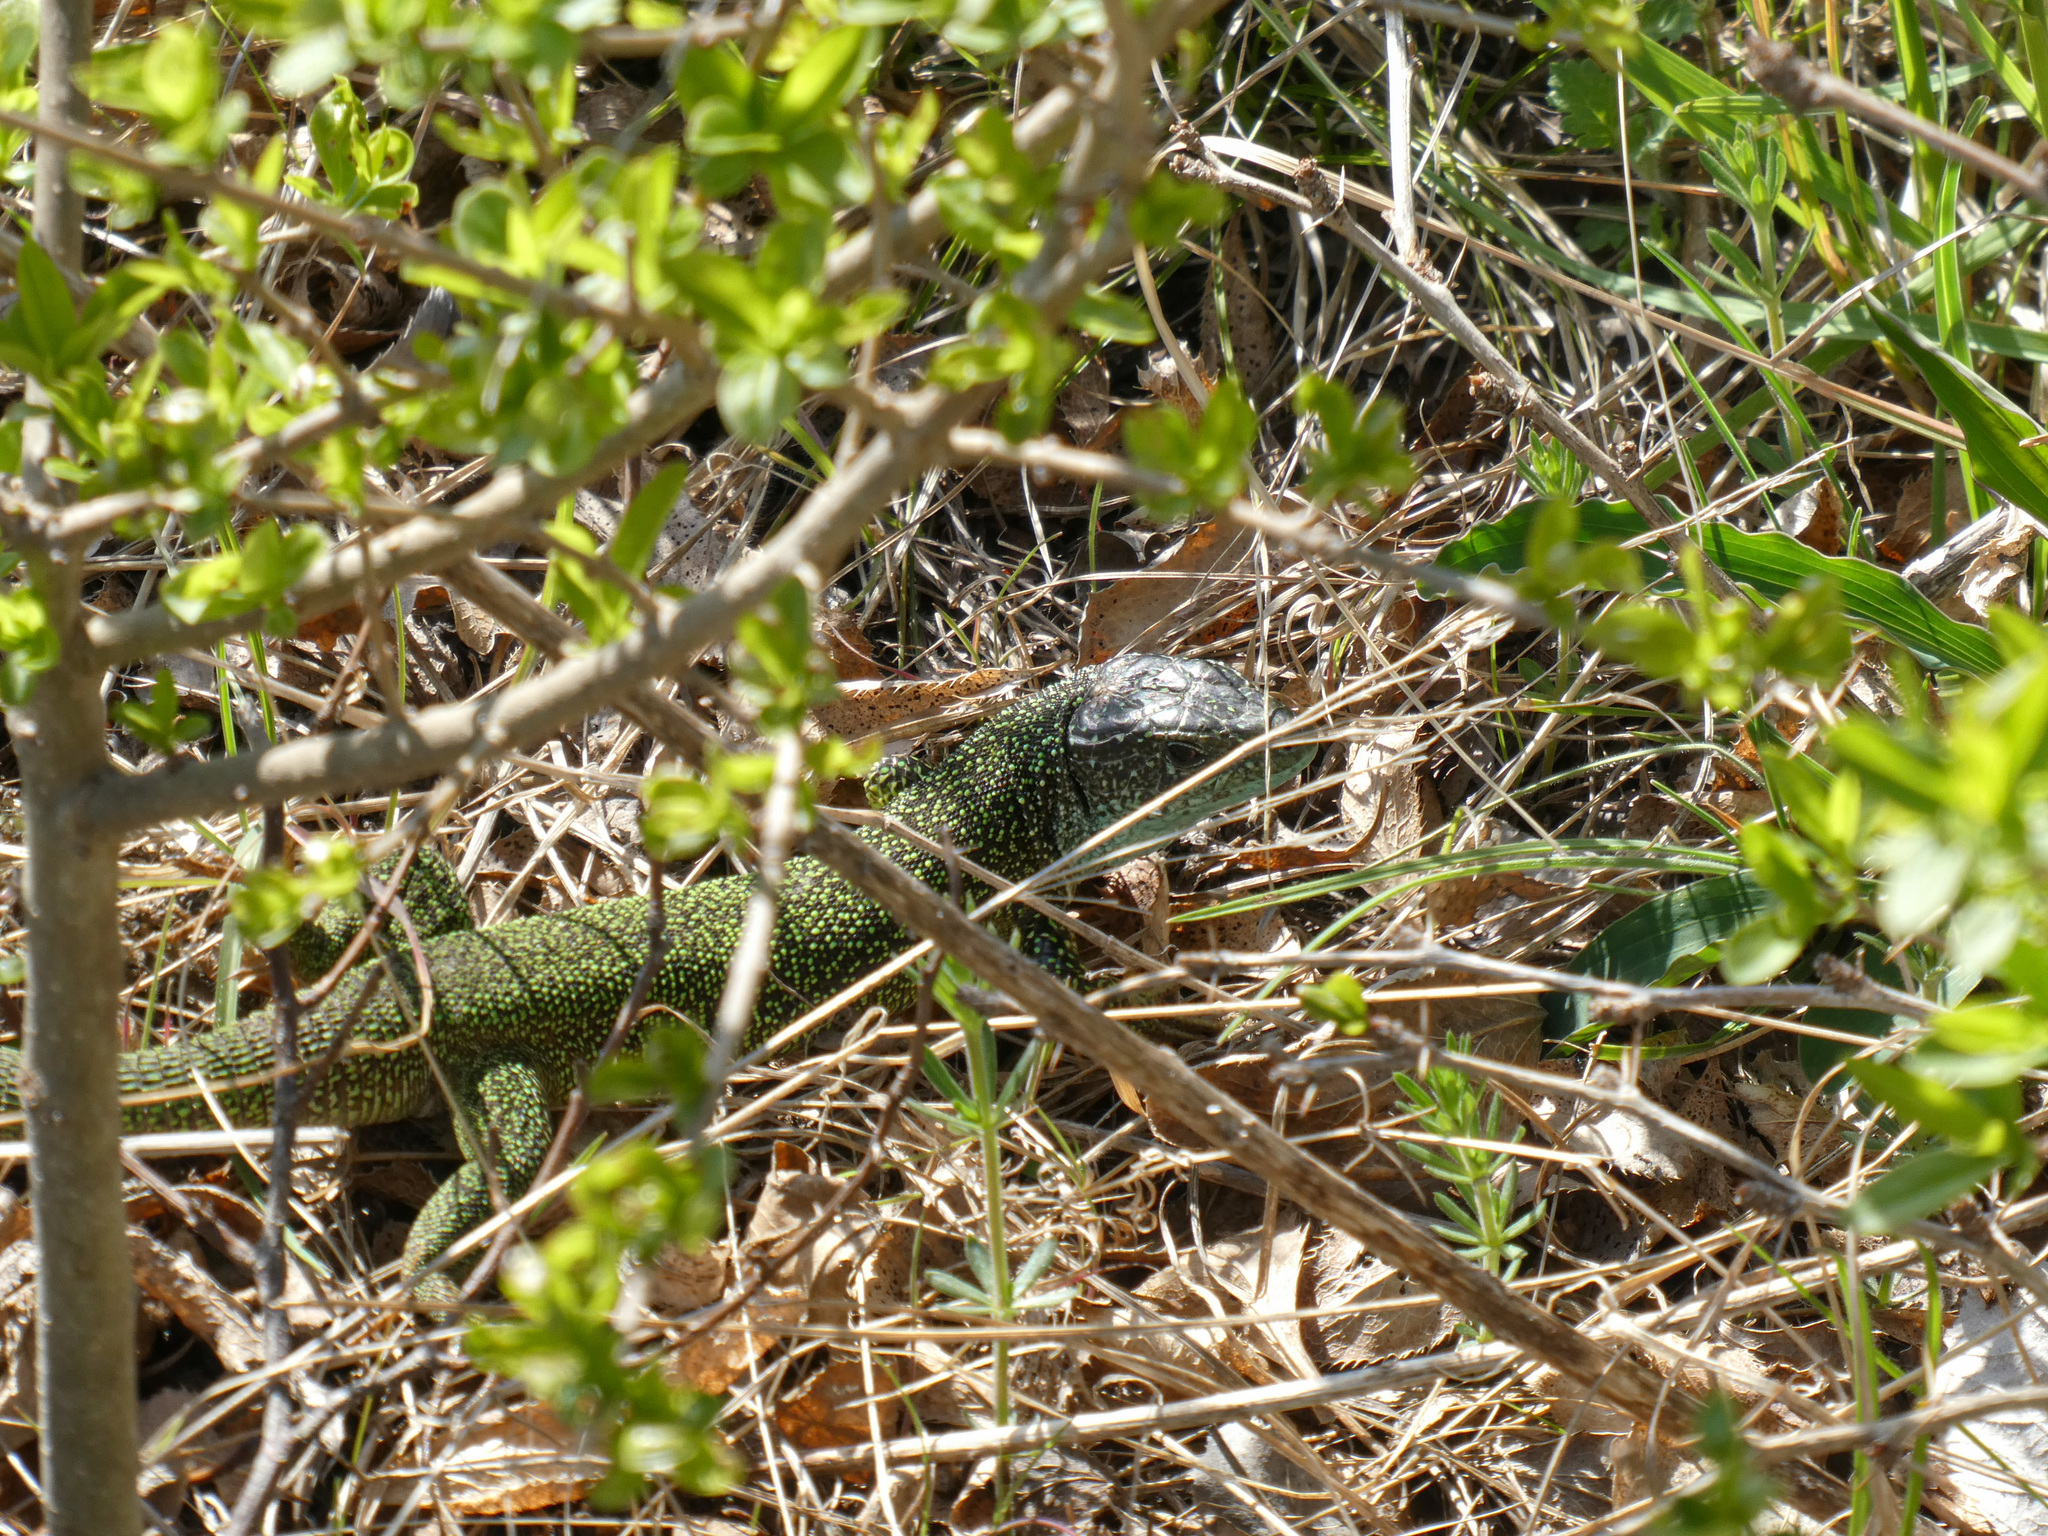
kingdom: Animalia
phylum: Chordata
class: Squamata
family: Lacertidae
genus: Lacerta
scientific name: Lacerta viridis
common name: European green lizard
